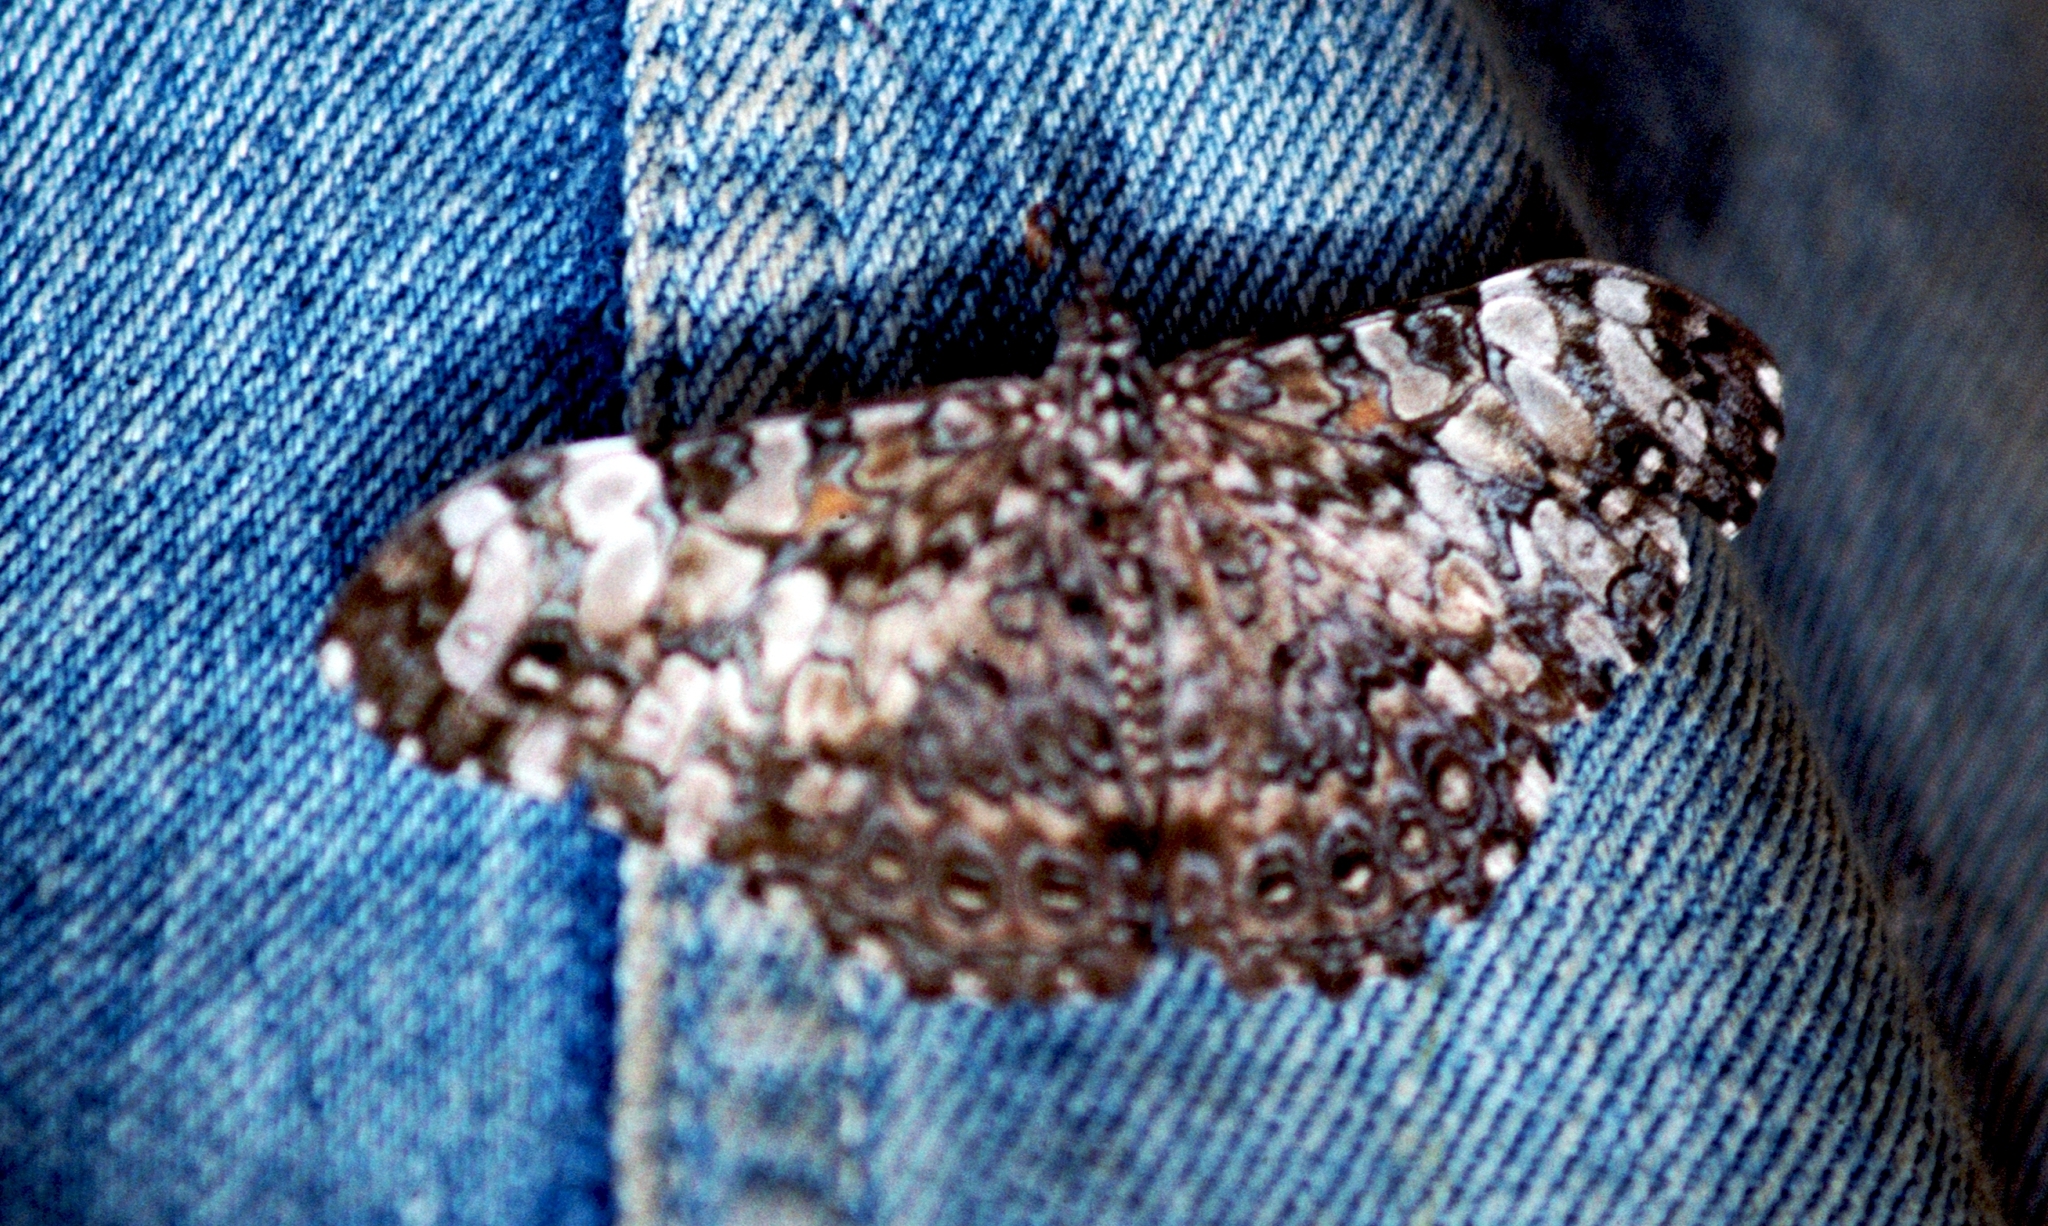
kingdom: Animalia
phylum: Arthropoda
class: Insecta
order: Lepidoptera
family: Nymphalidae
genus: Hamadryas
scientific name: Hamadryas epinome
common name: Epinome cracker
